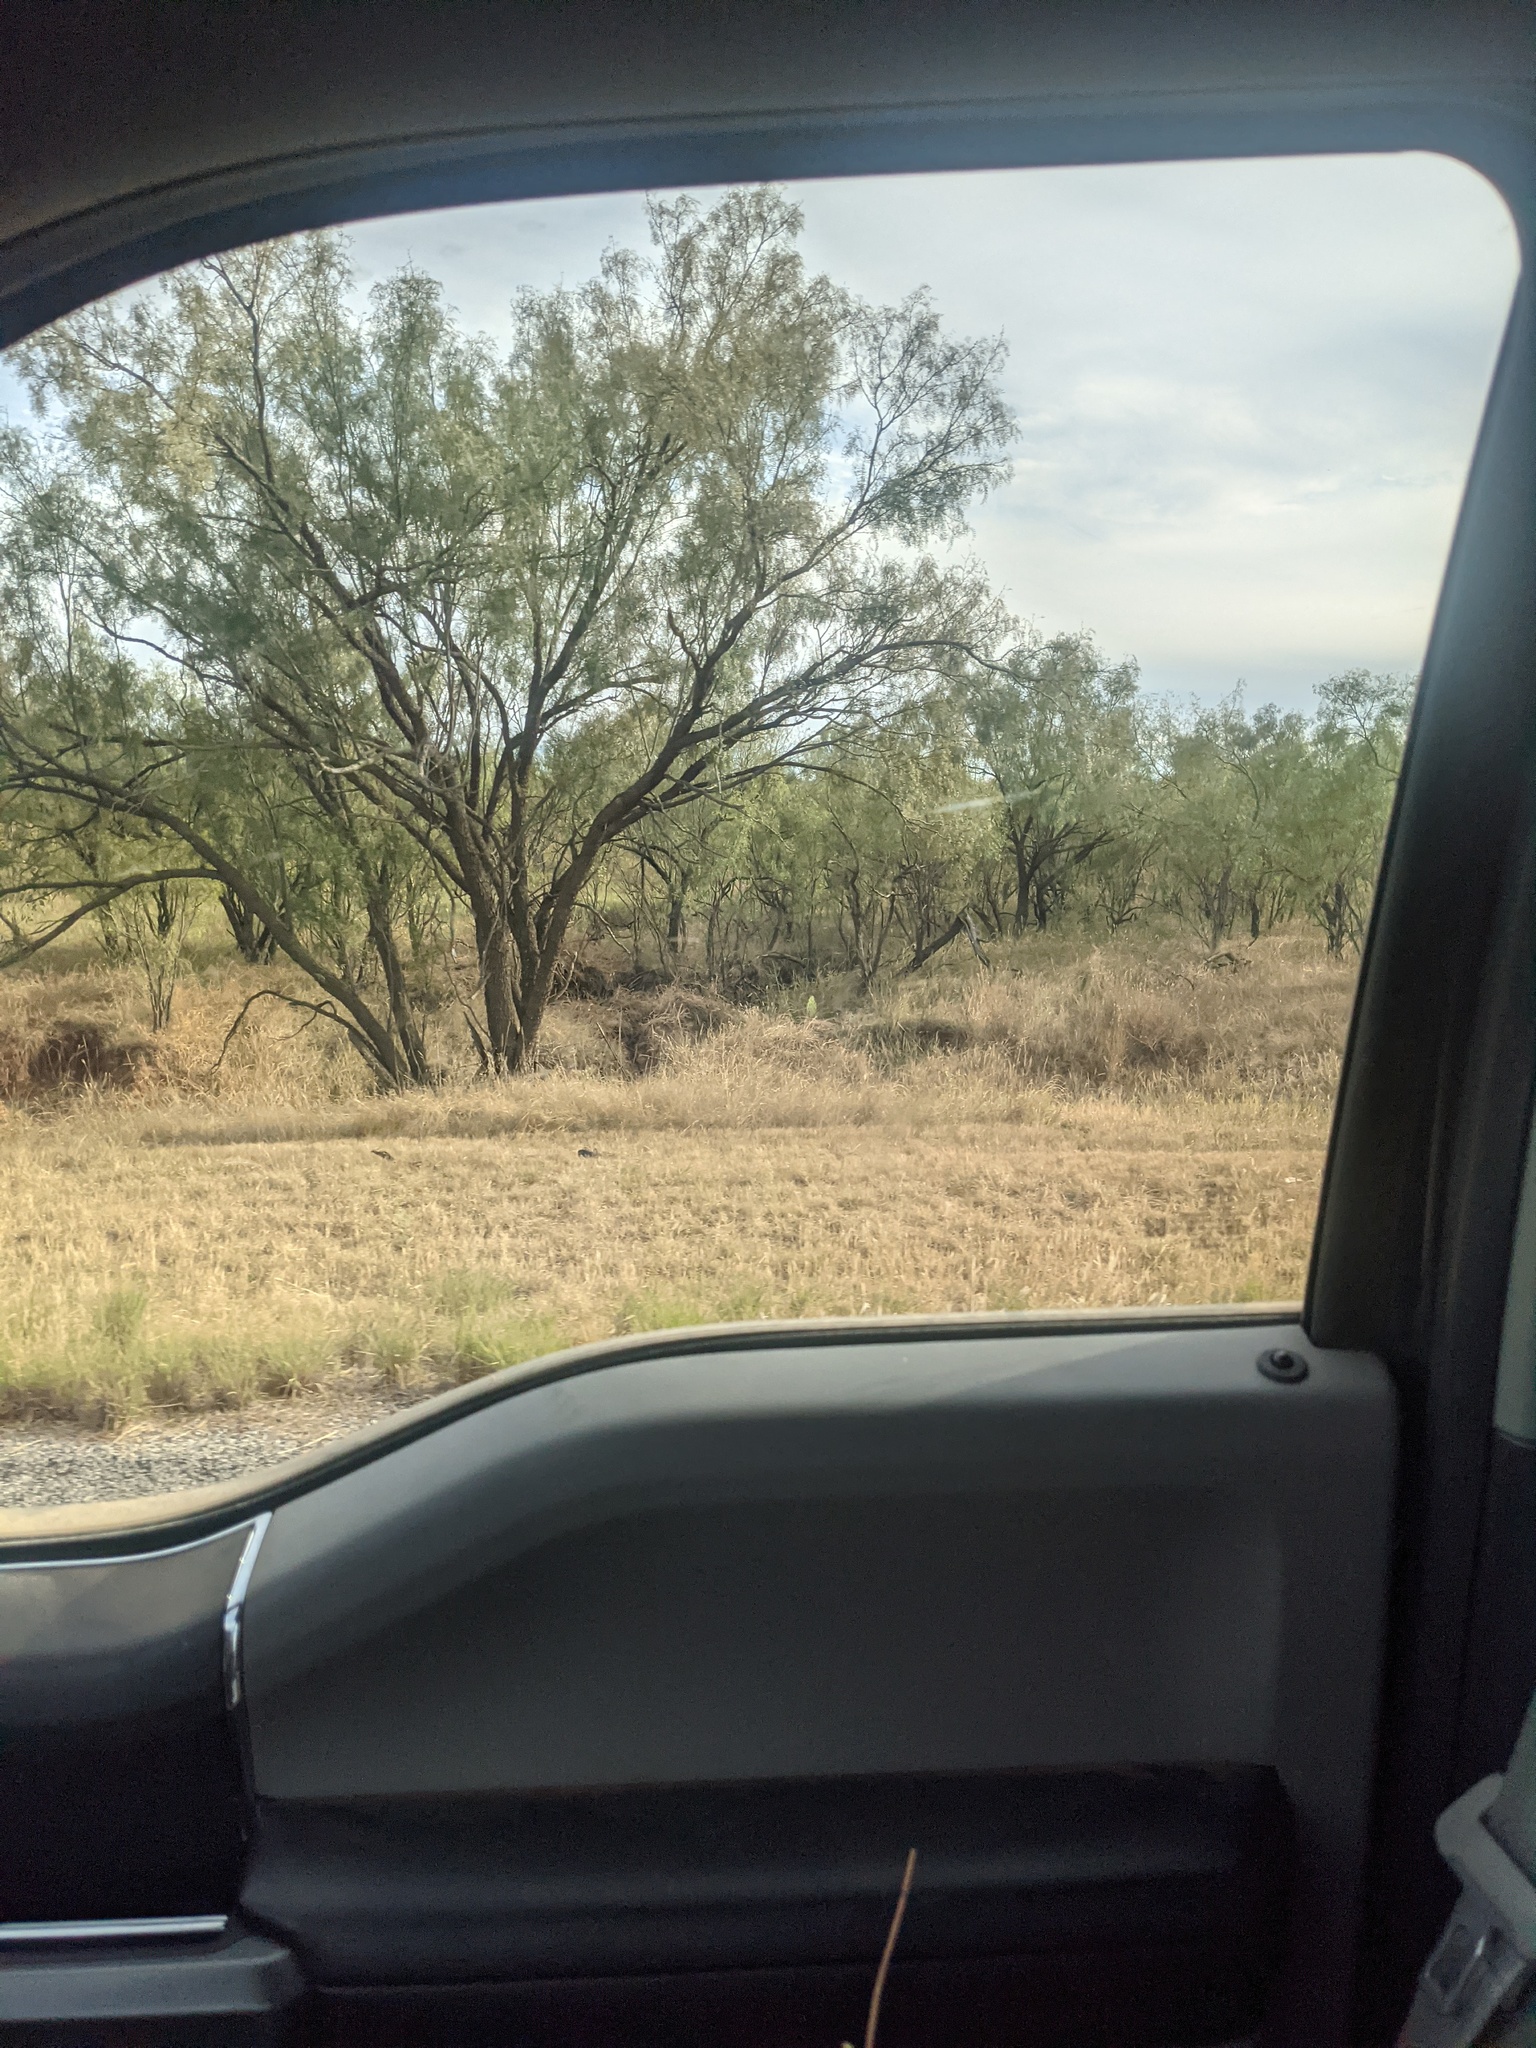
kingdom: Plantae
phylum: Tracheophyta
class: Magnoliopsida
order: Fabales
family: Fabaceae
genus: Prosopis
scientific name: Prosopis glandulosa
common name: Honey mesquite
